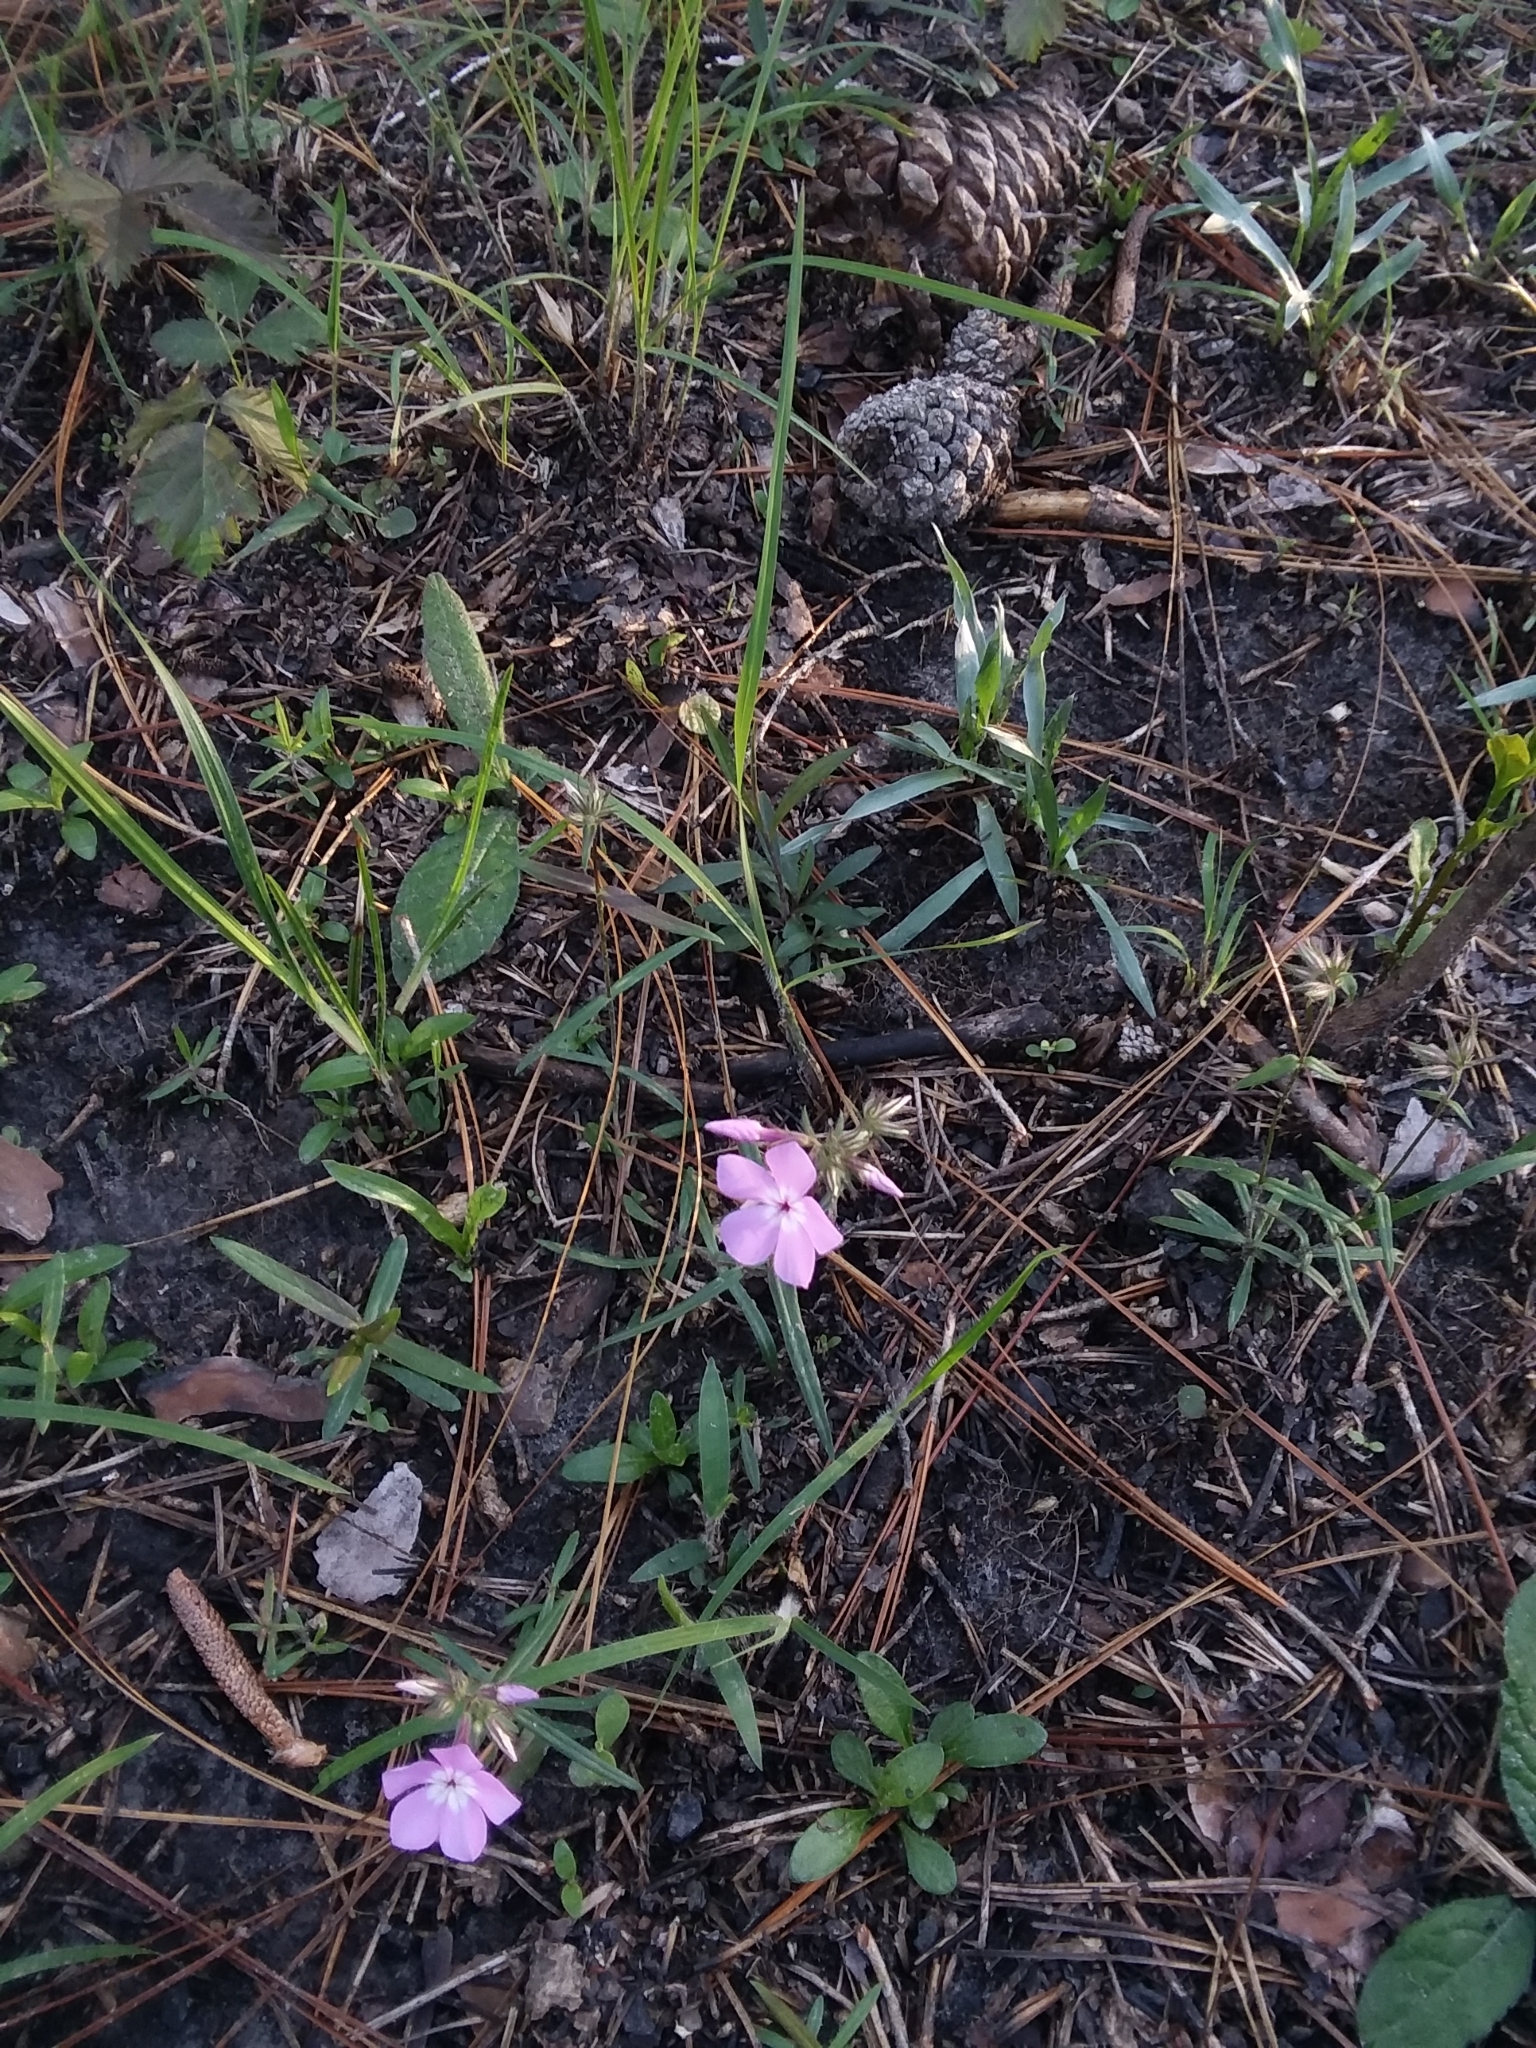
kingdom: Plantae
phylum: Tracheophyta
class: Magnoliopsida
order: Ericales
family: Polemoniaceae
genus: Phlox
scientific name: Phlox pilosa
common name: Prairie phlox
